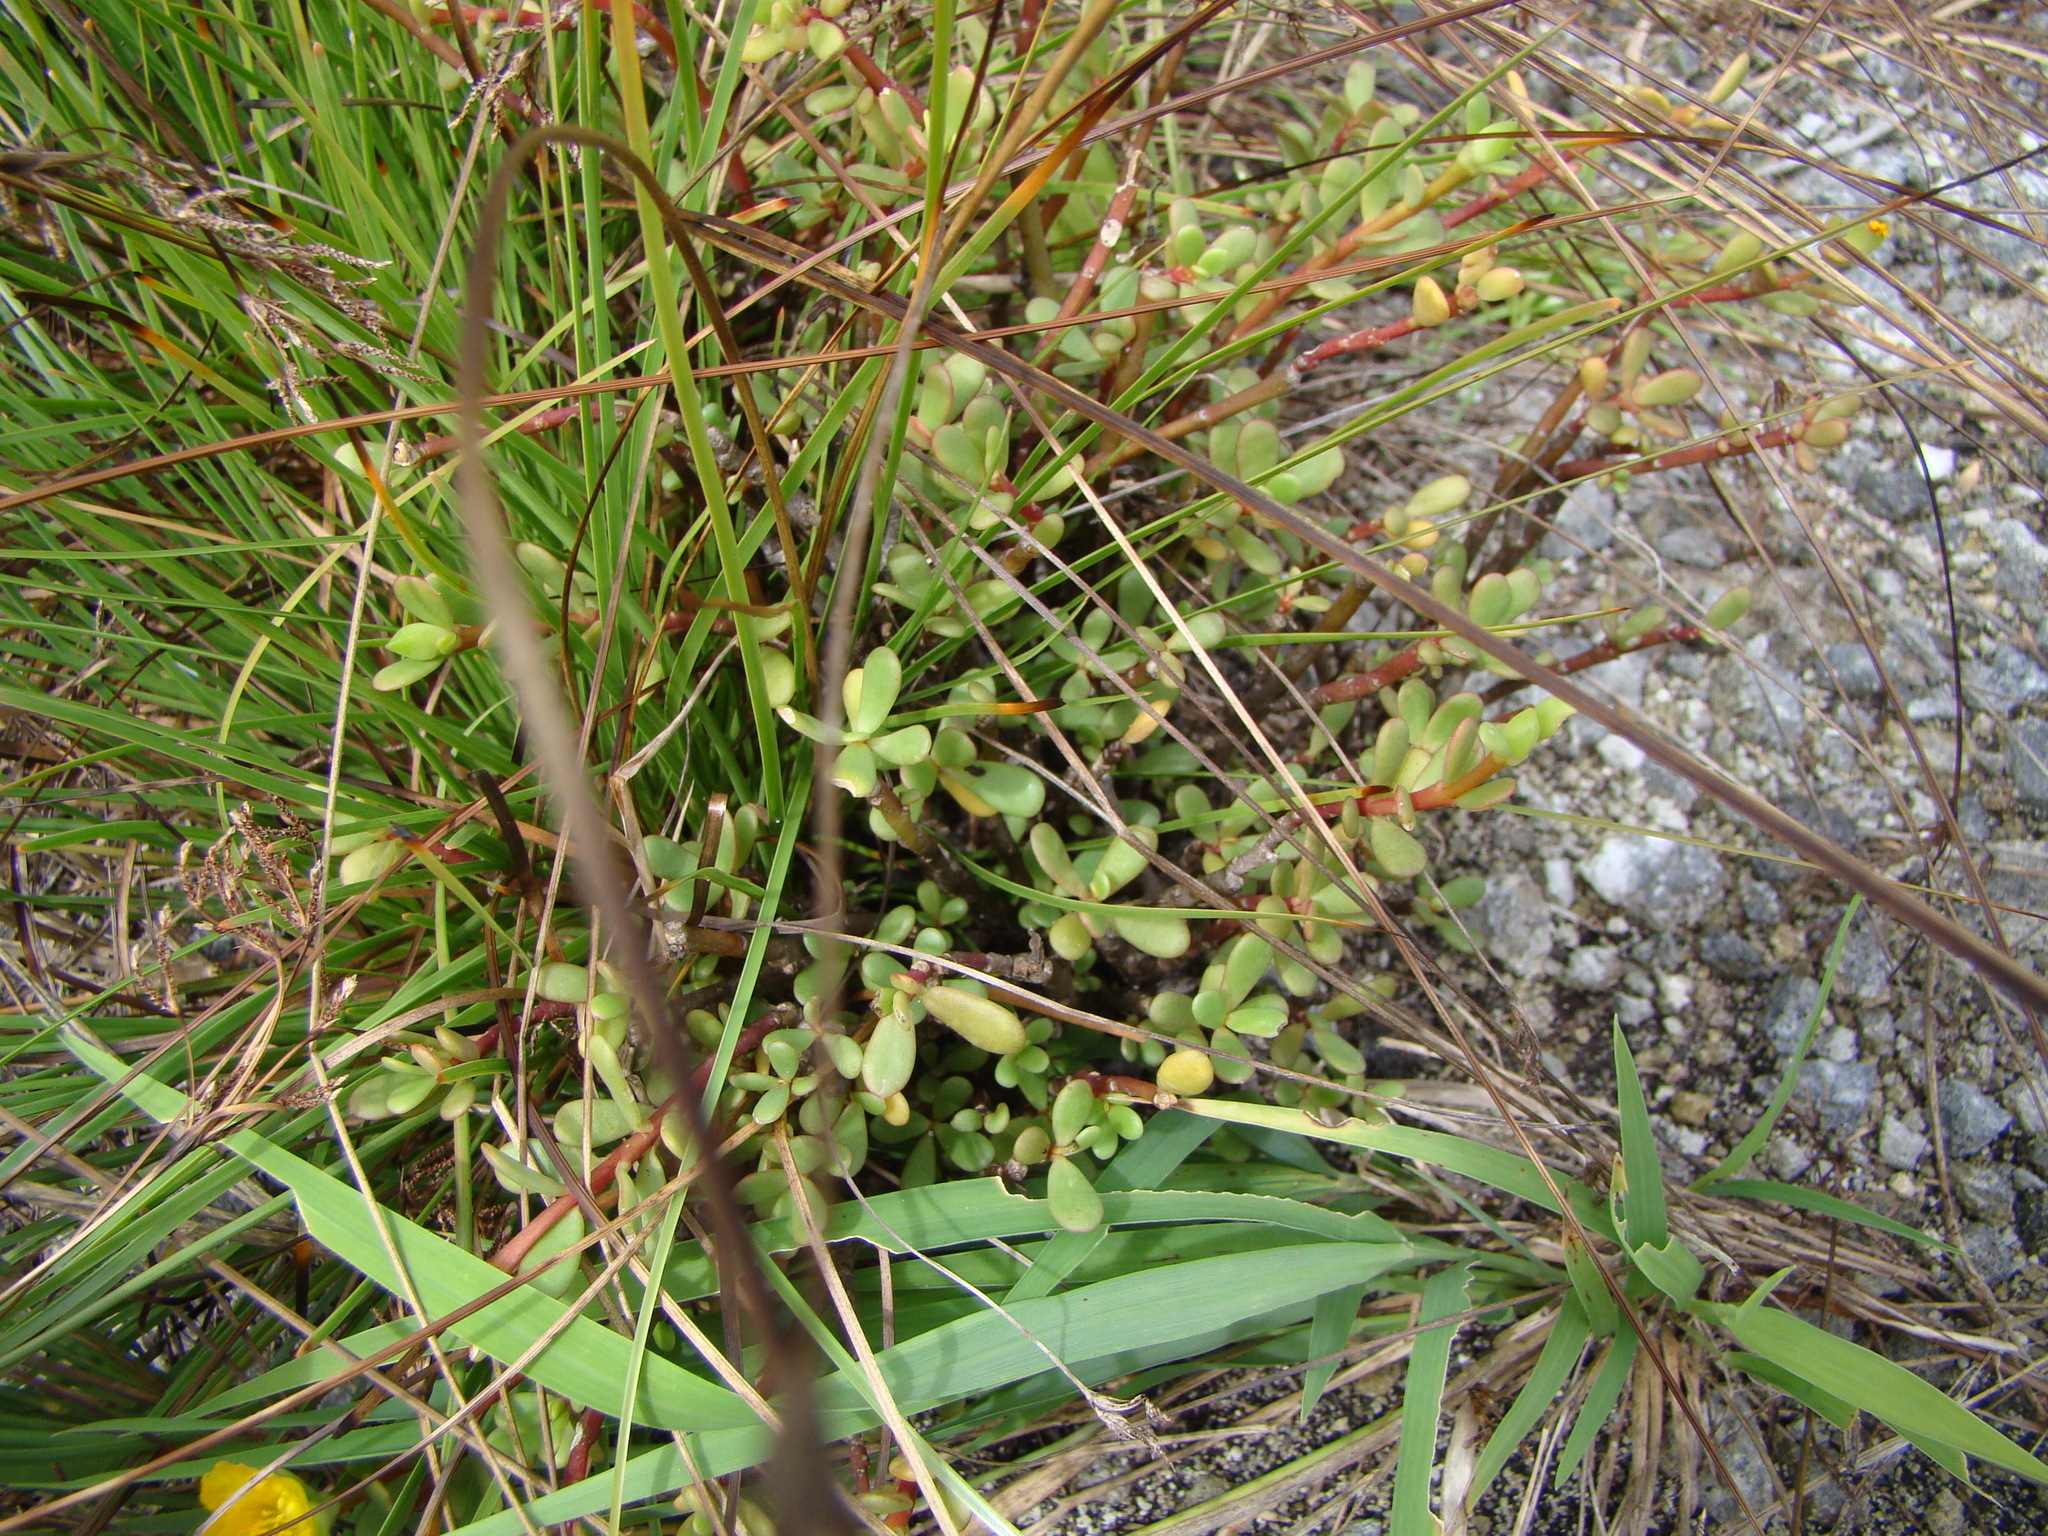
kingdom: Plantae
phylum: Tracheophyta
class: Magnoliopsida
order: Caryophyllales
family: Portulacaceae
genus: Portulaca
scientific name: Portulaca oleracea
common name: Common purslane
